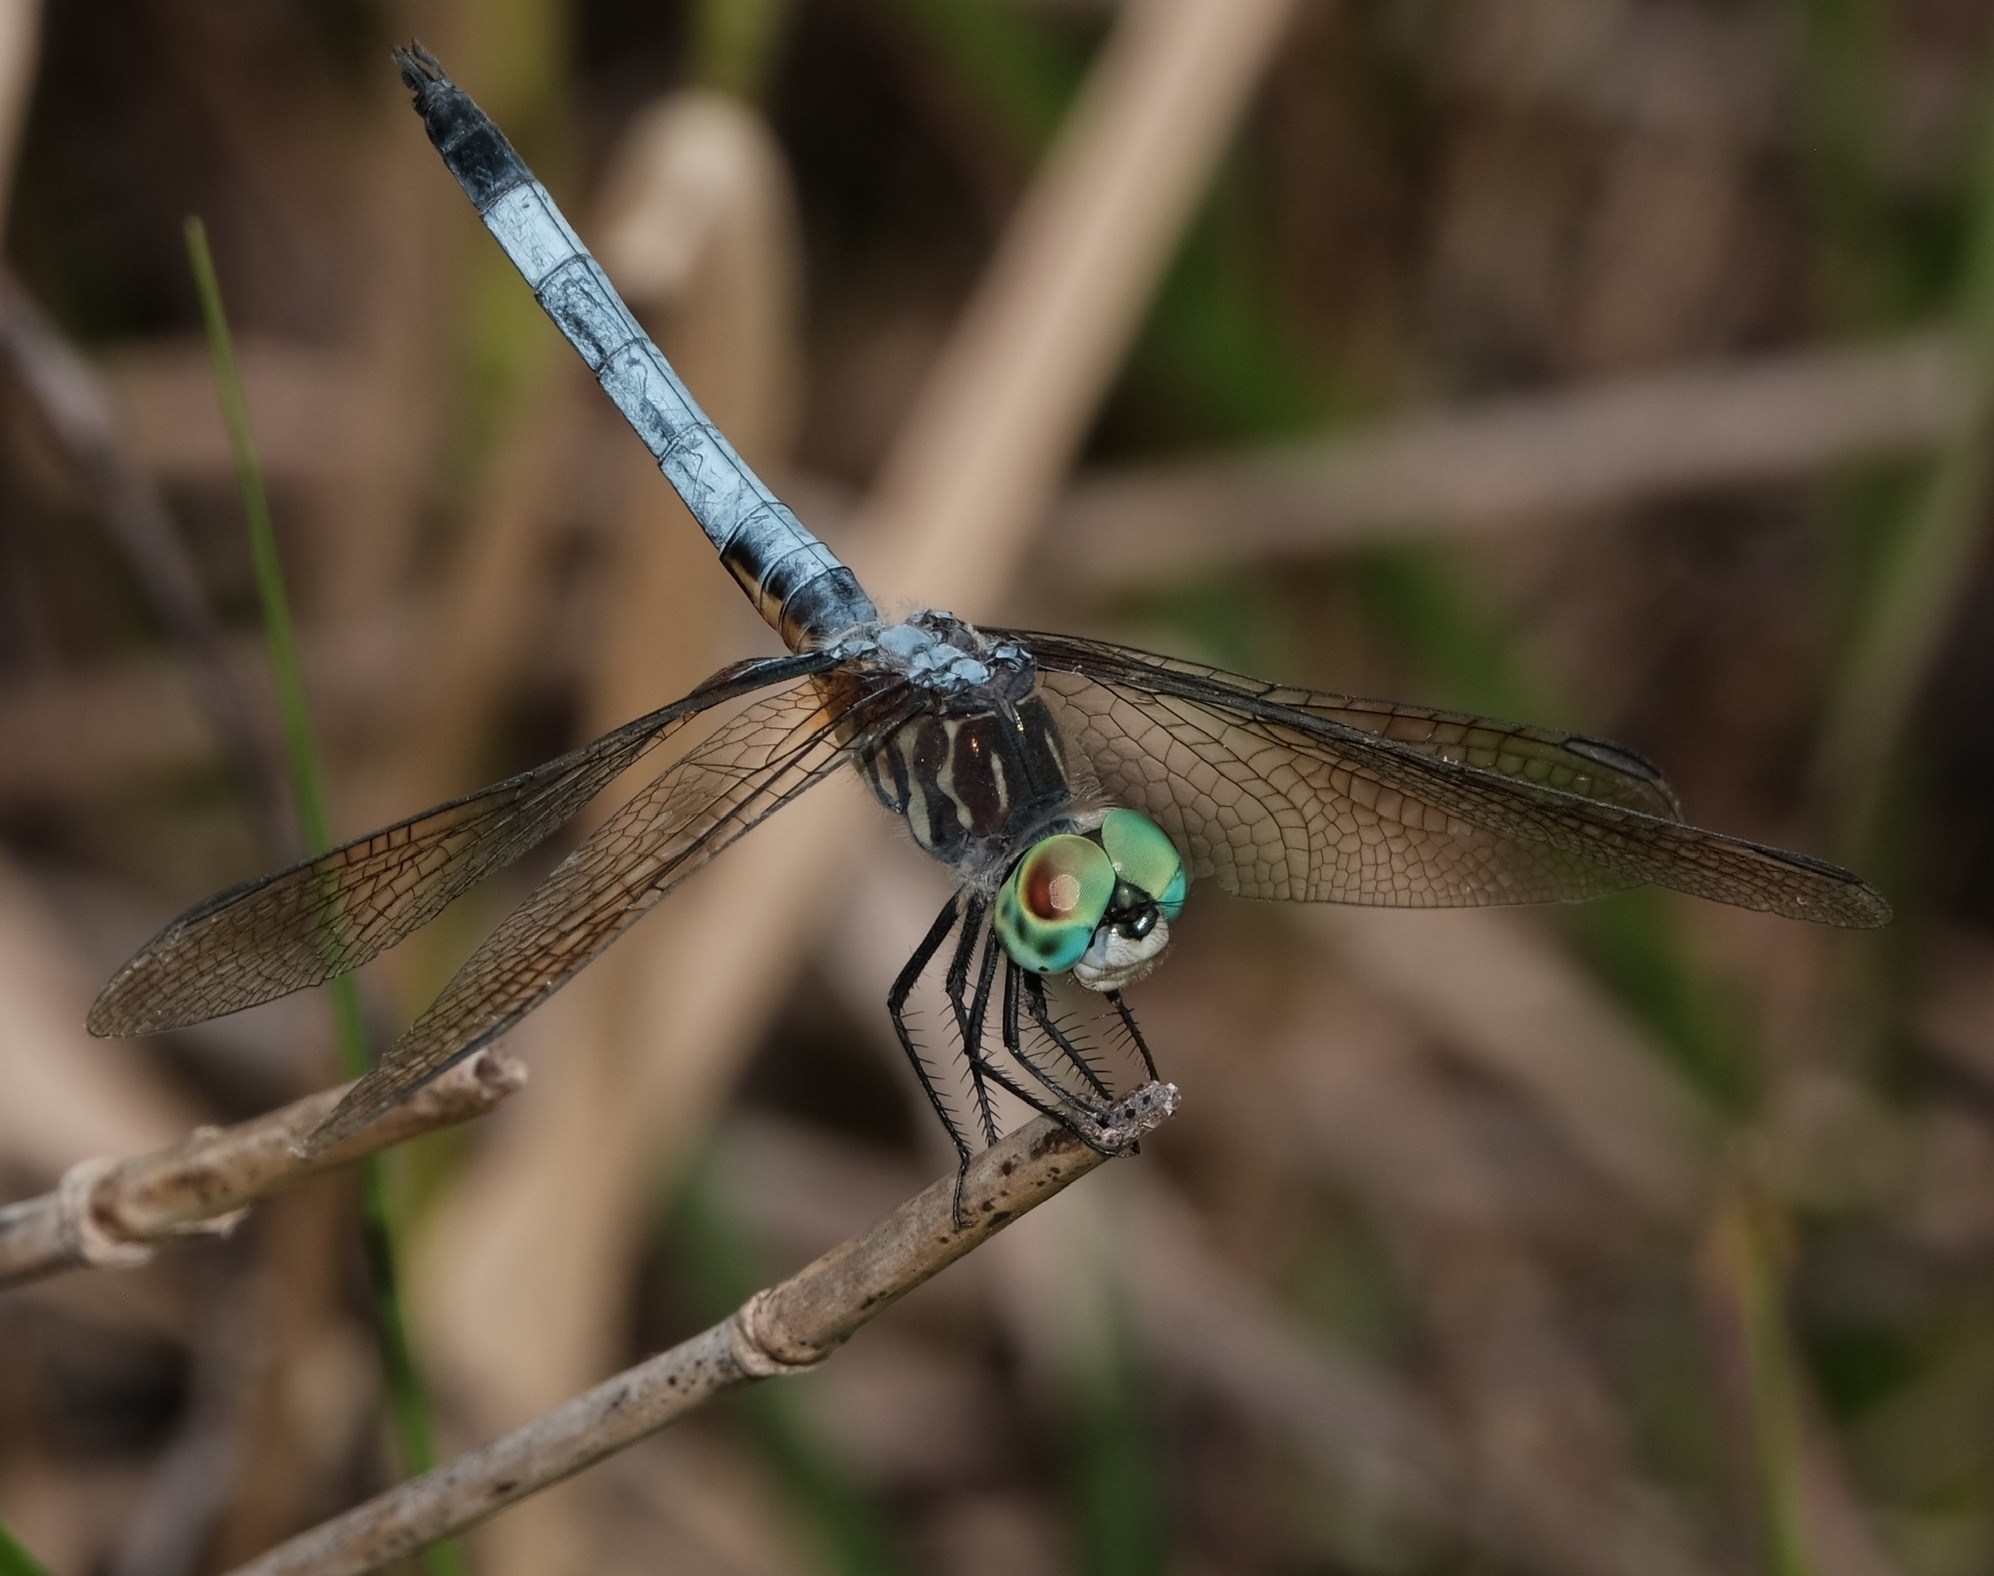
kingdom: Animalia
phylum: Arthropoda
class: Insecta
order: Odonata
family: Libellulidae
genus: Pachydiplax
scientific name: Pachydiplax longipennis
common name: Blue dasher
